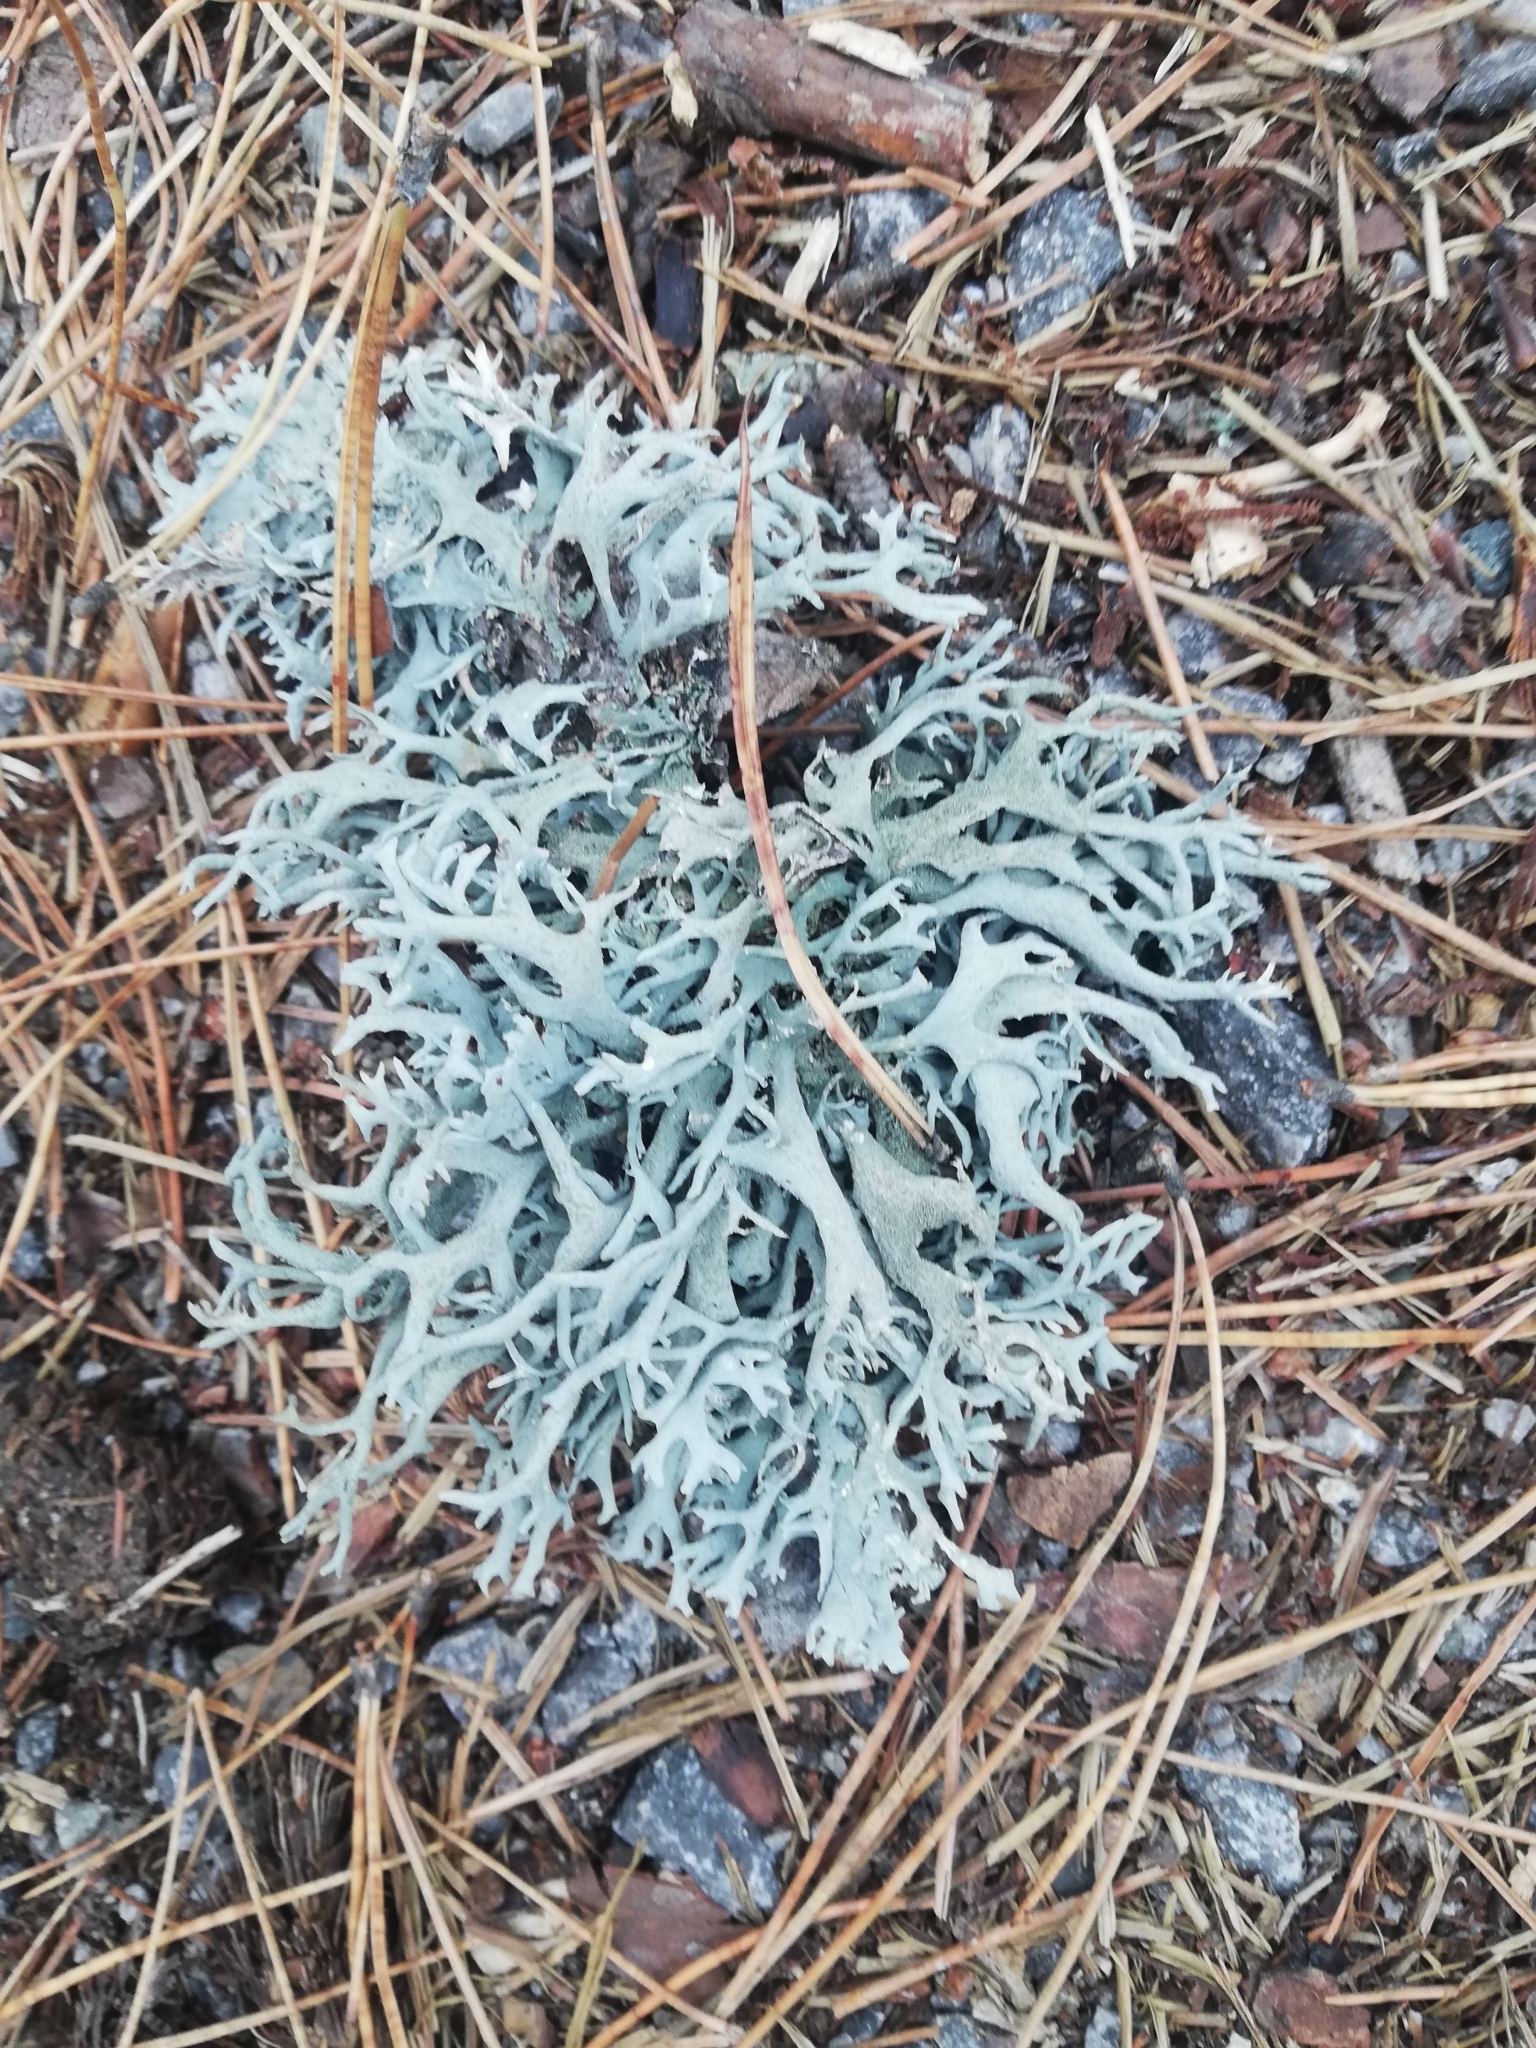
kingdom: Fungi
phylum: Ascomycota
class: Lecanoromycetes
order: Lecanorales
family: Parmeliaceae
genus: Pseudevernia
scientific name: Pseudevernia furfuracea
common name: Tree moss
